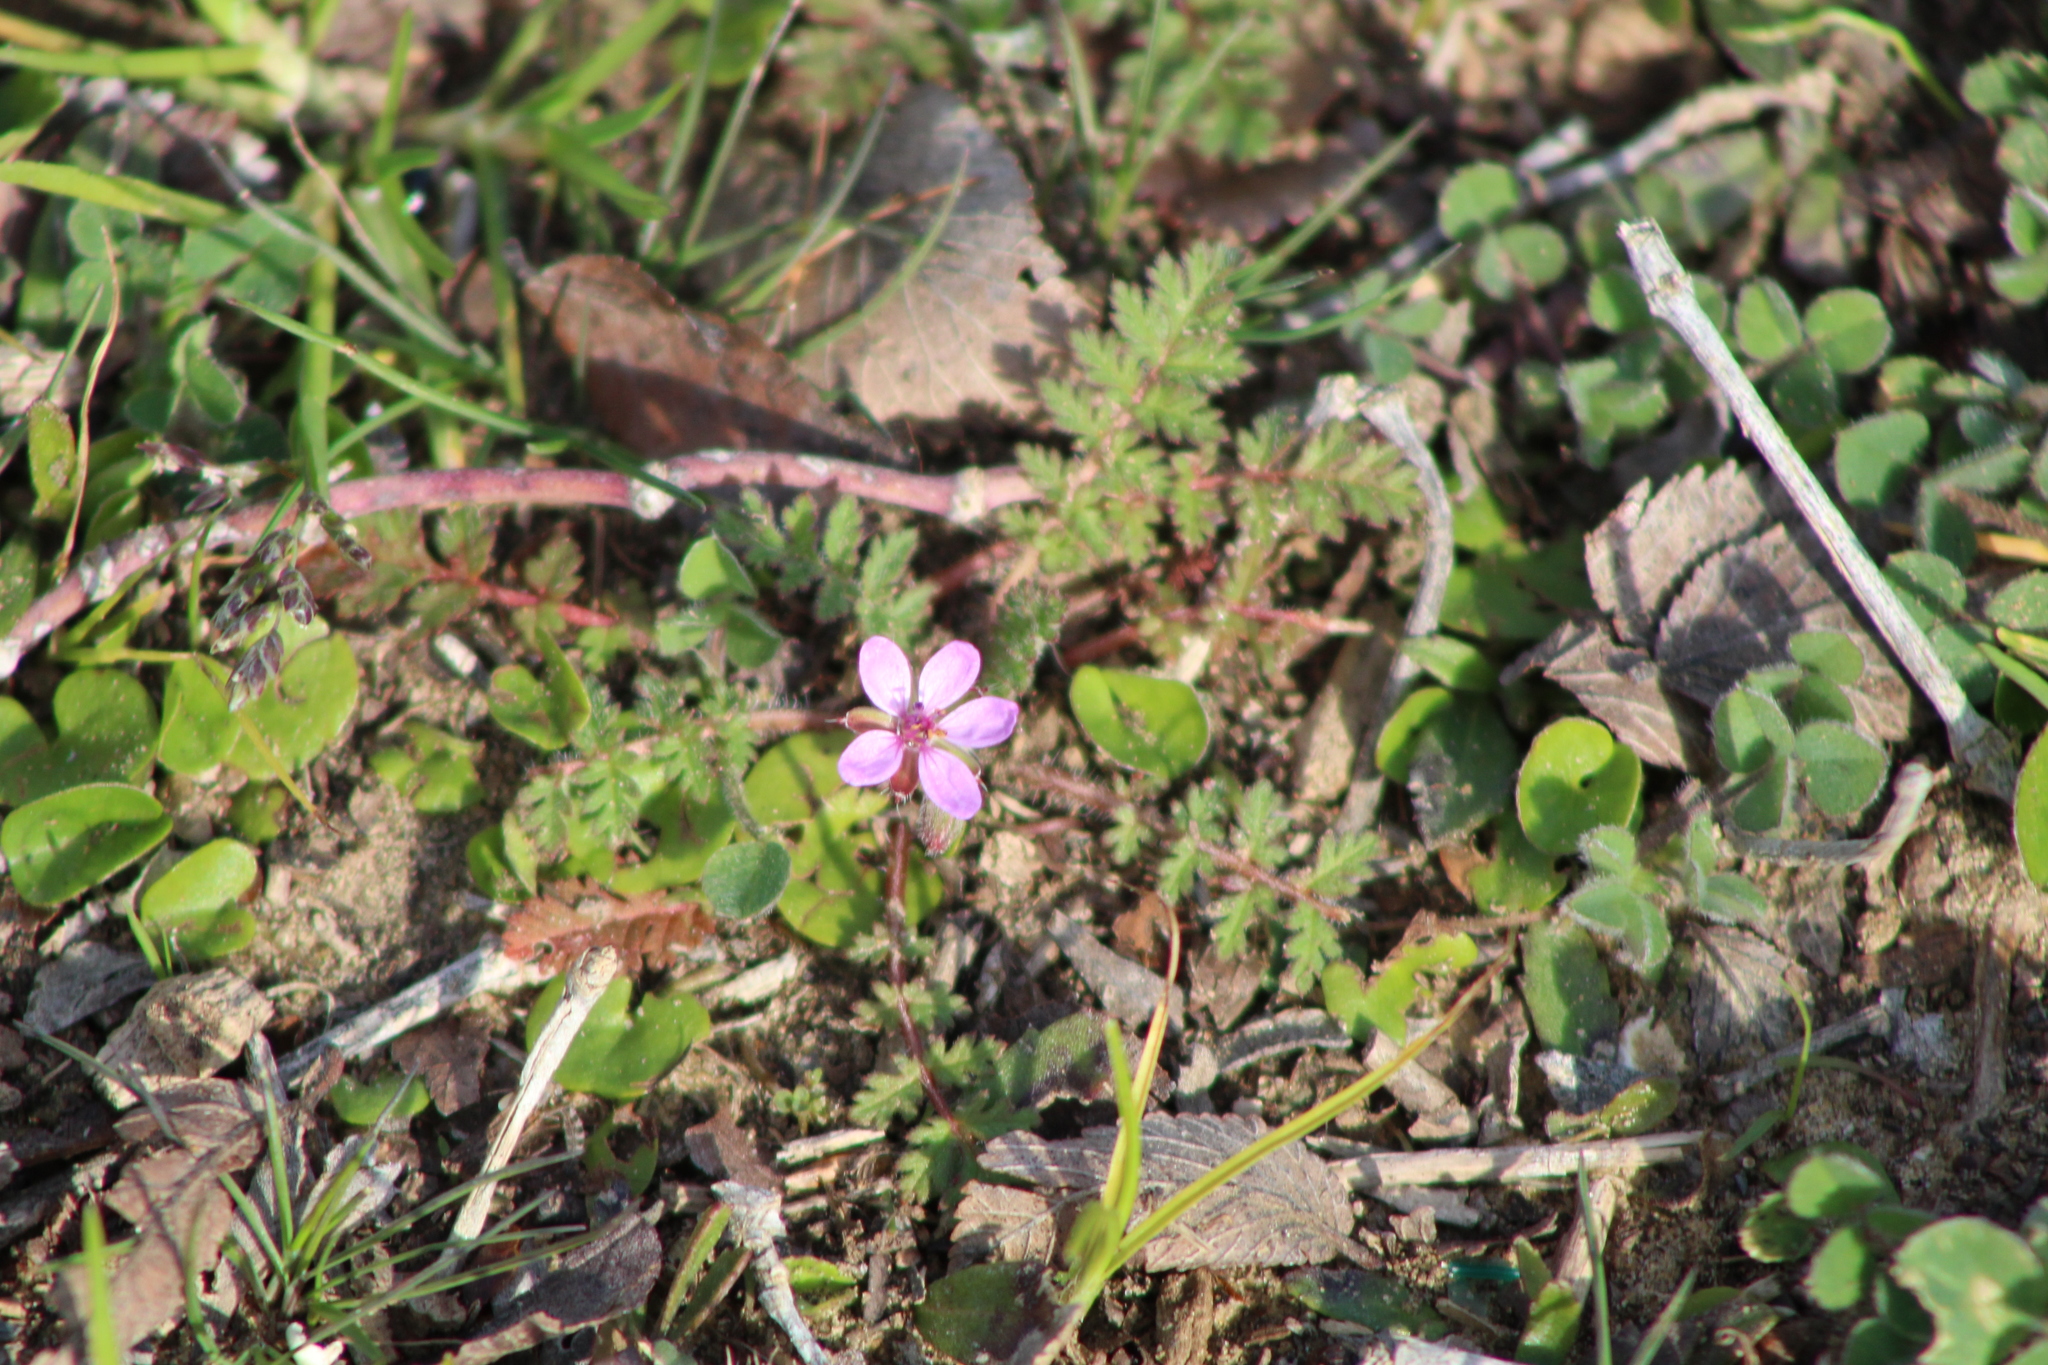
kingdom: Plantae
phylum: Tracheophyta
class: Magnoliopsida
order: Geraniales
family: Geraniaceae
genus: Erodium
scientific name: Erodium cicutarium
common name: Common stork's-bill
